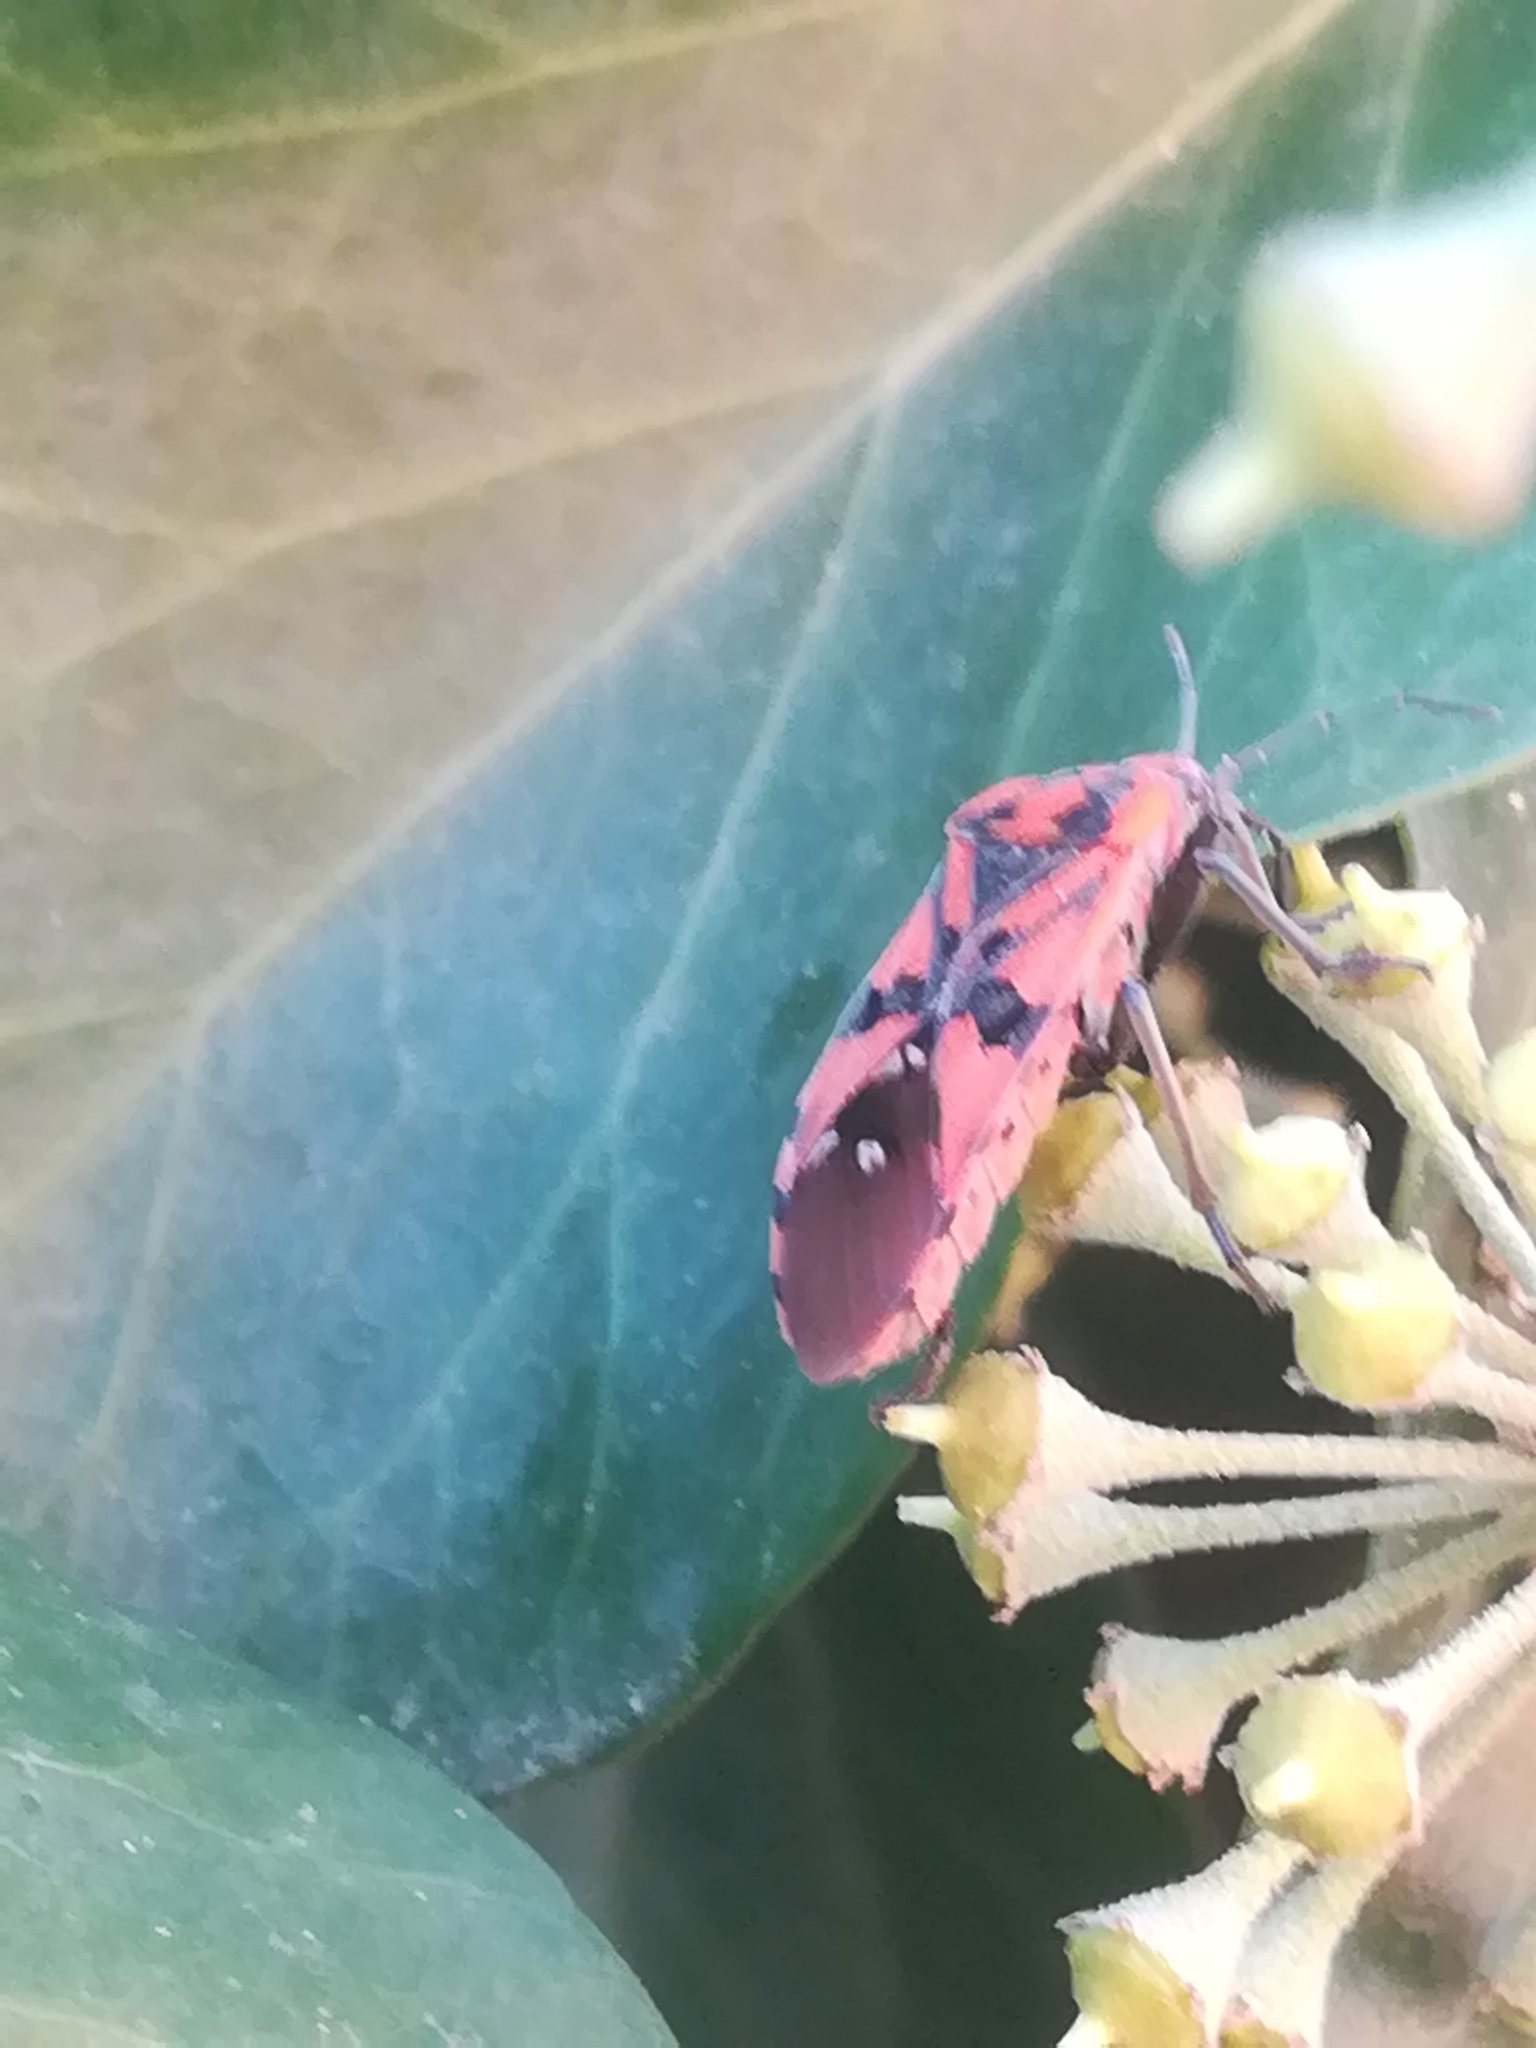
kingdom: Animalia
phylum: Arthropoda
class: Insecta
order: Hemiptera
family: Lygaeidae
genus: Spilostethus
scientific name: Spilostethus pandurus
